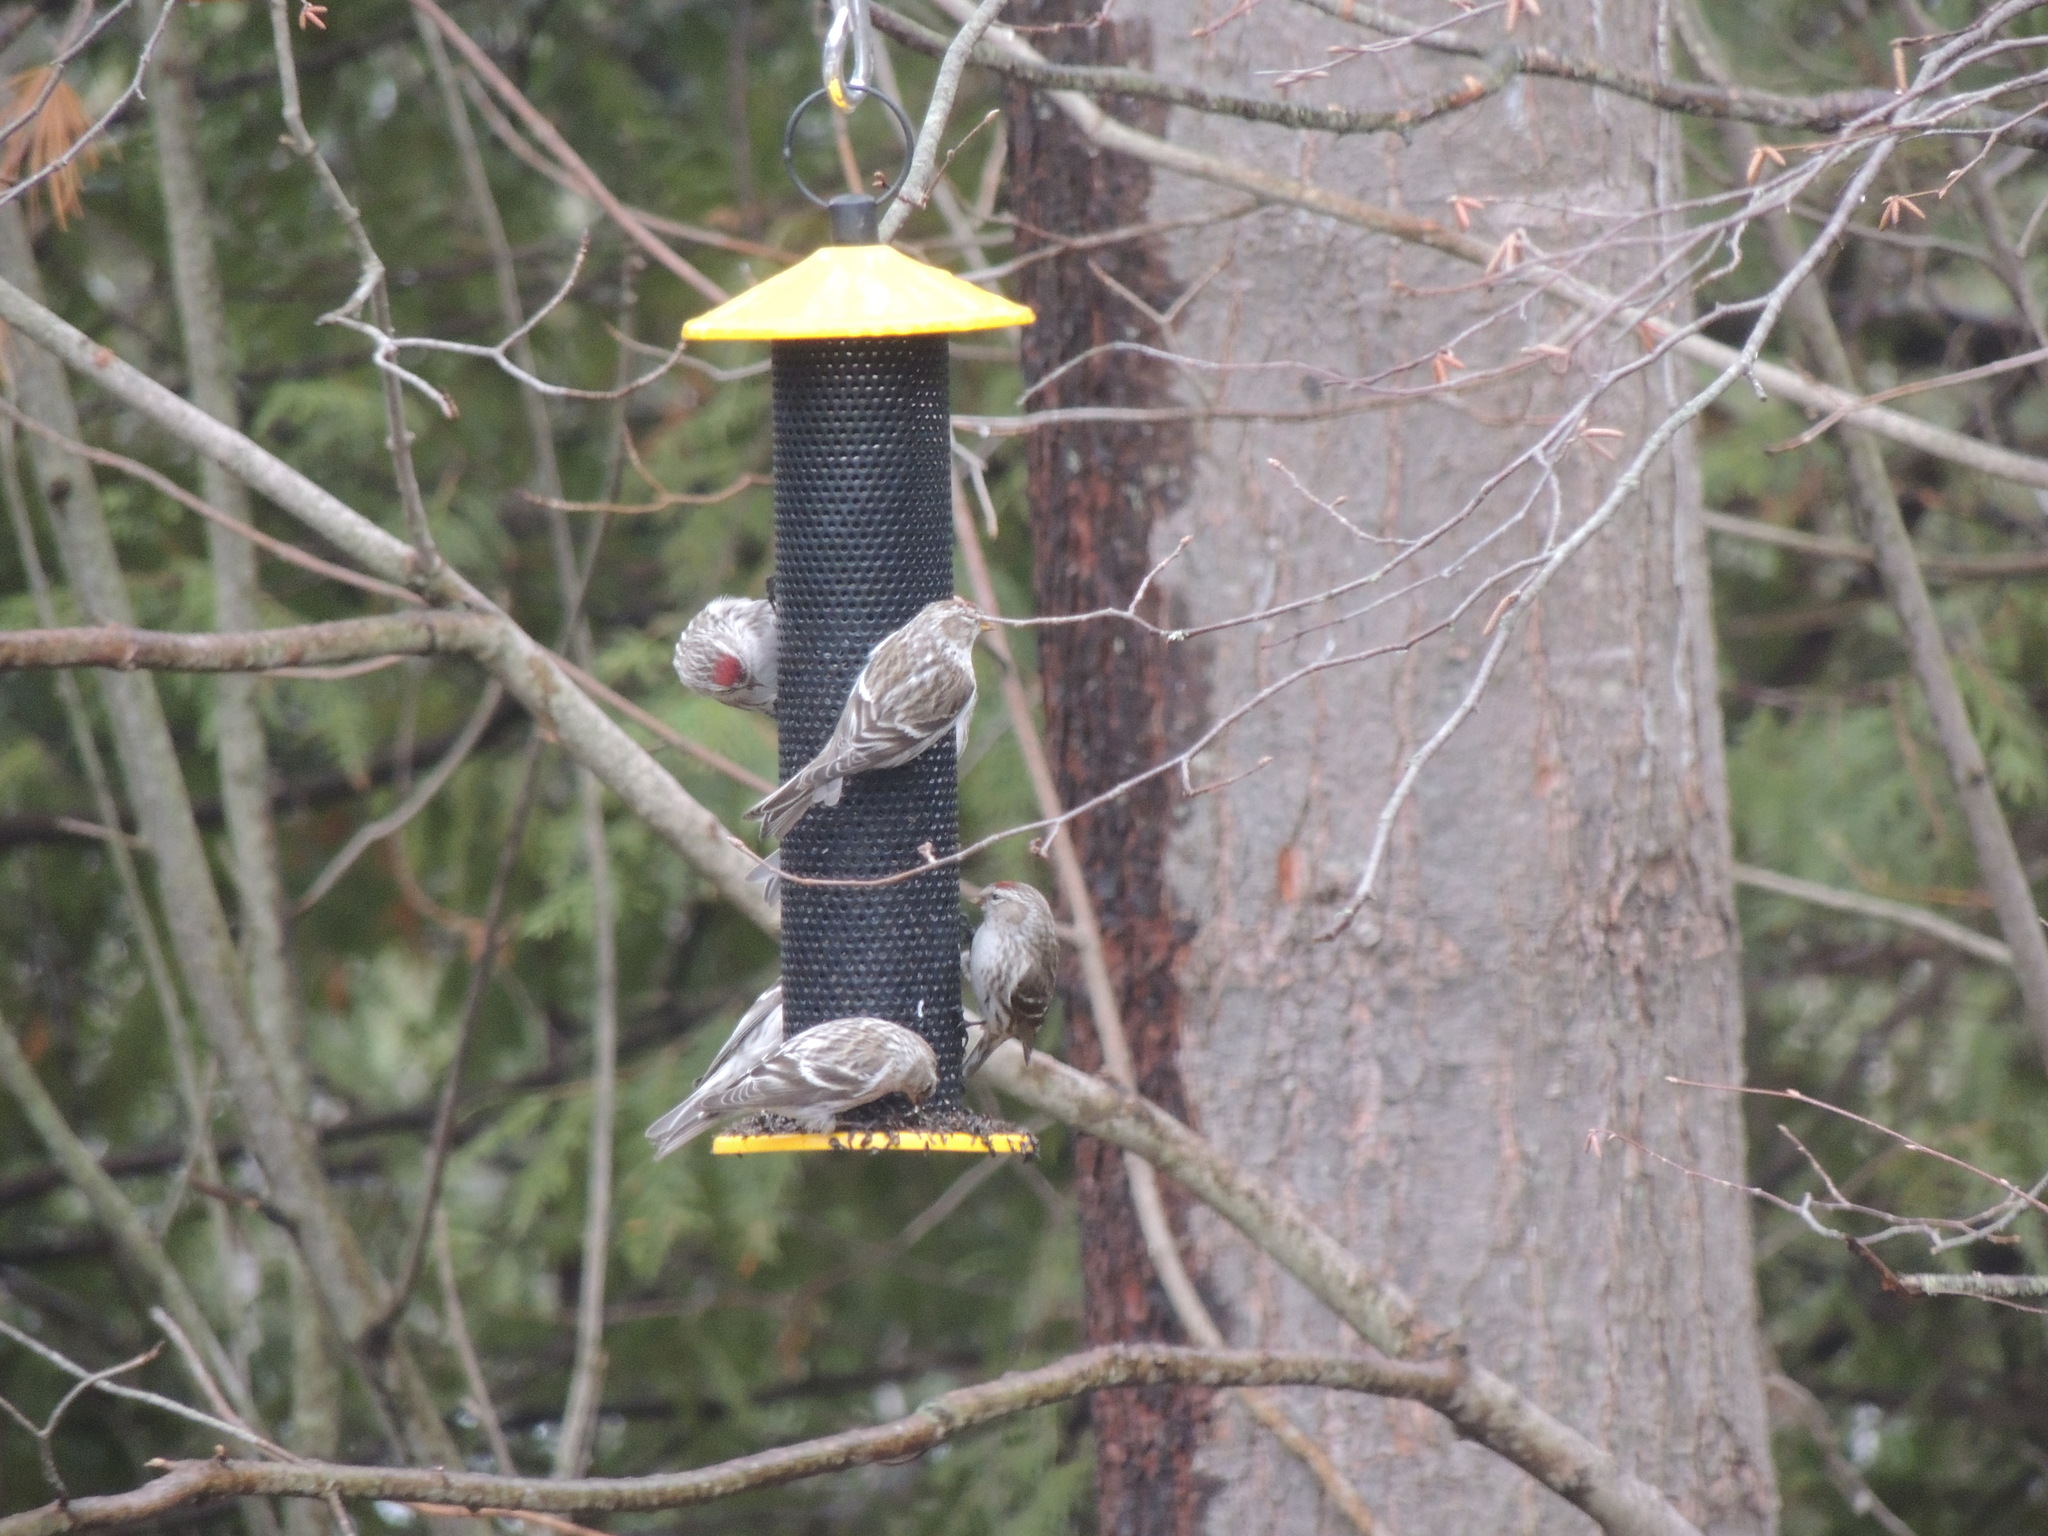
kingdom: Animalia
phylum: Chordata
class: Aves
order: Passeriformes
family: Fringillidae
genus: Acanthis
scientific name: Acanthis flammea
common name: Common redpoll
